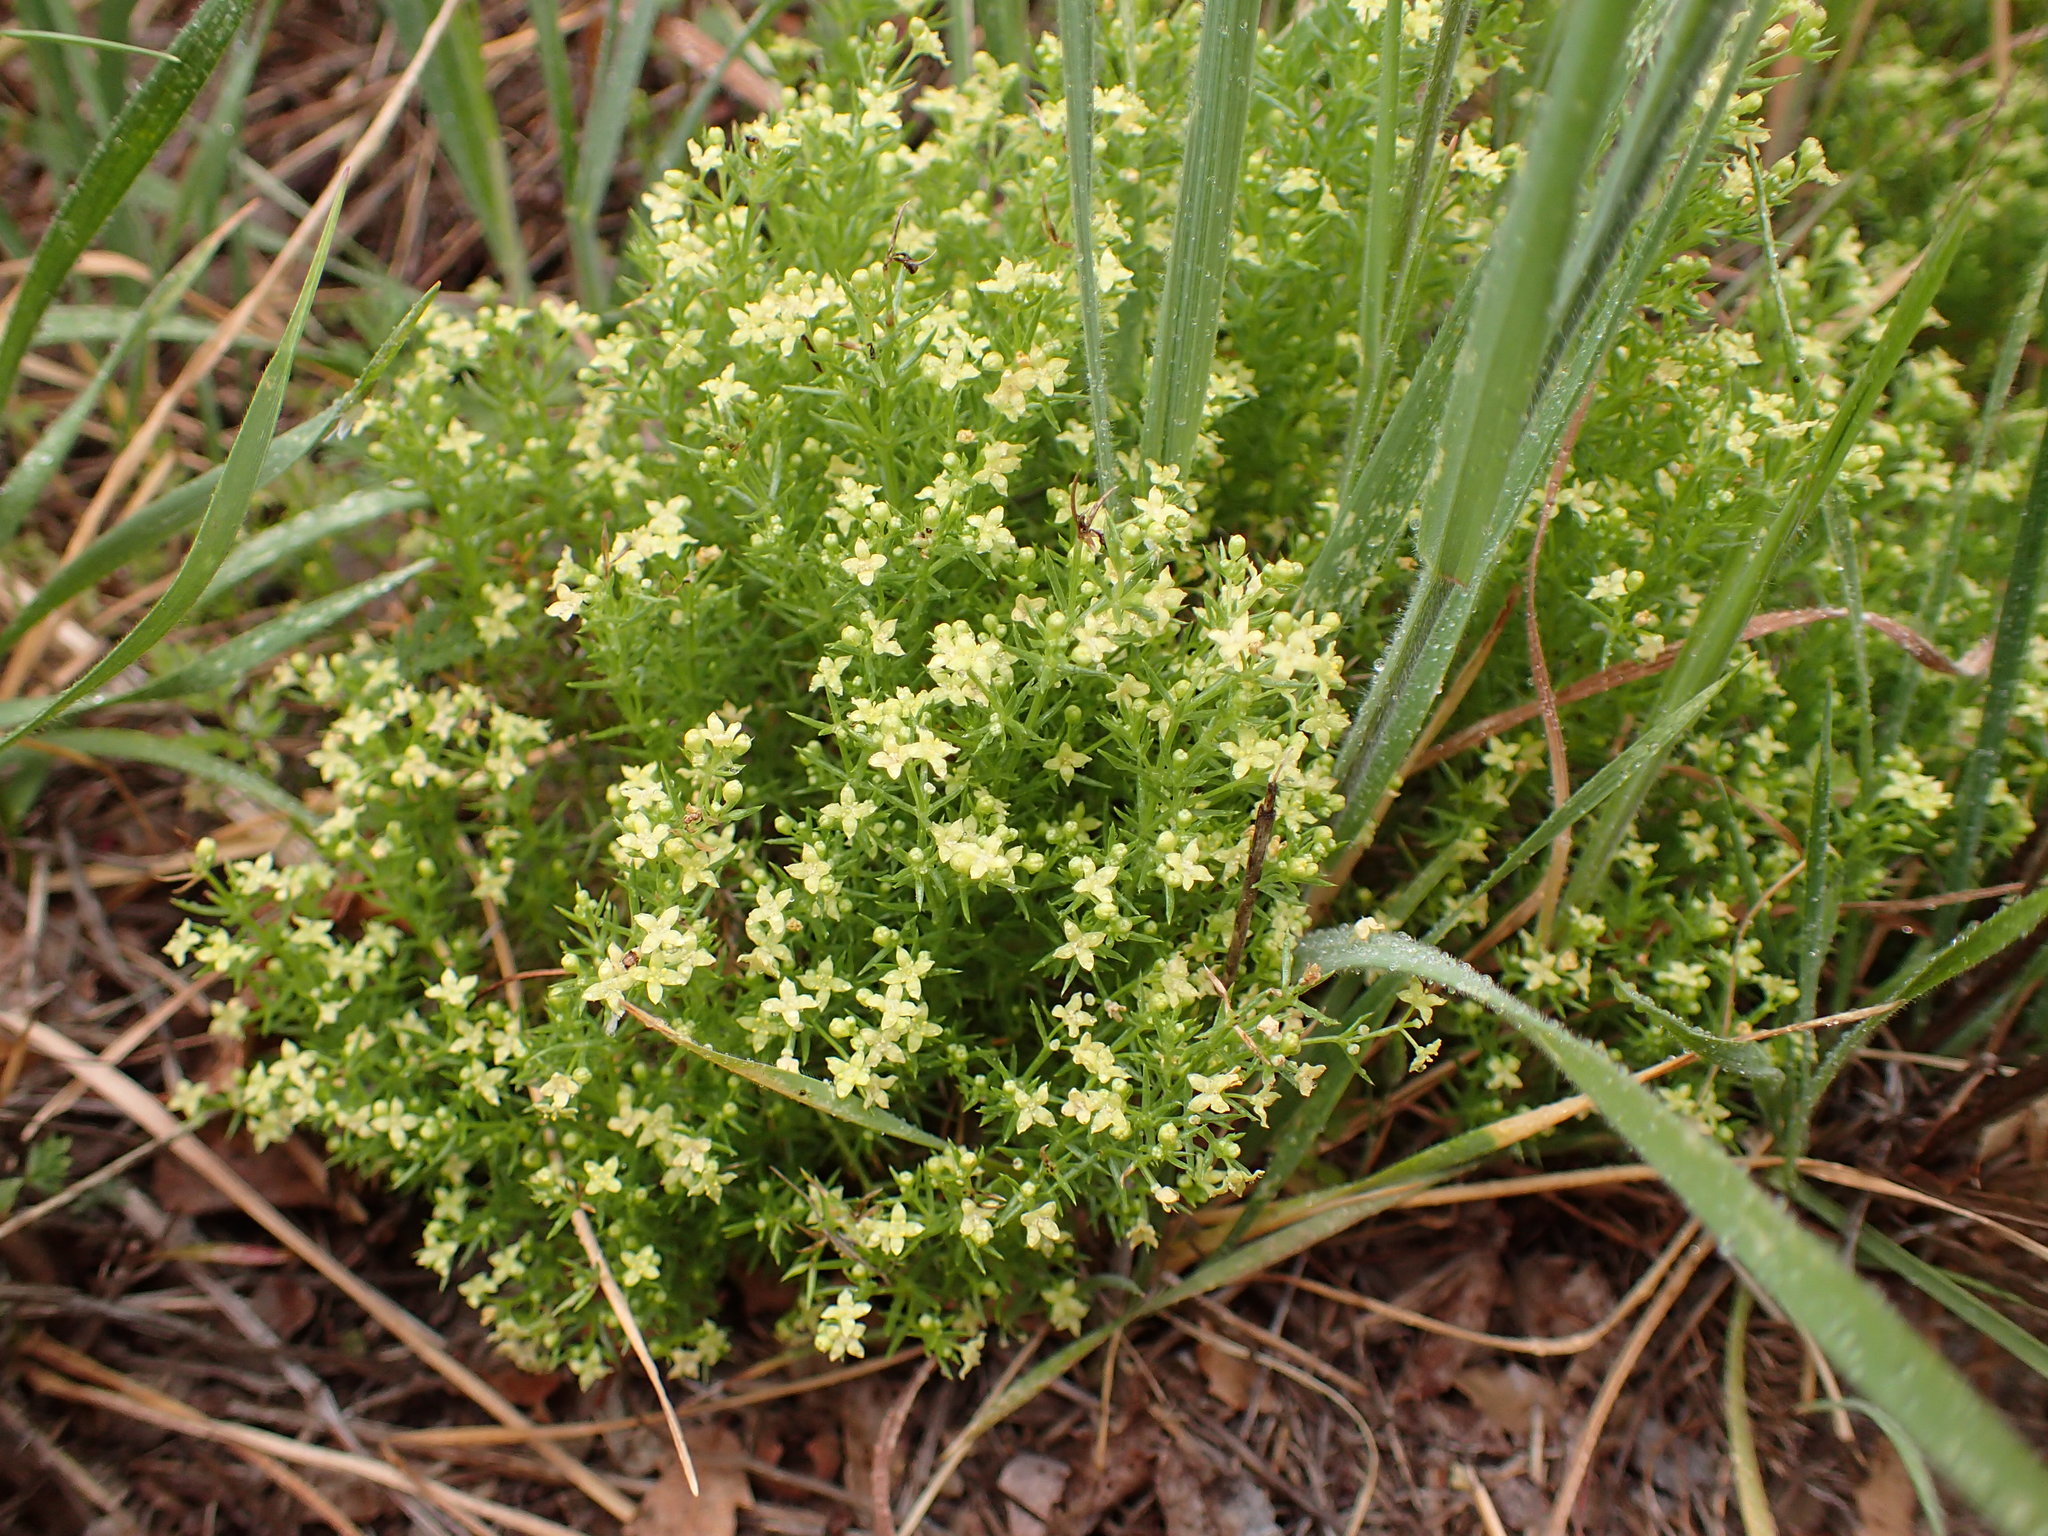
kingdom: Plantae
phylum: Tracheophyta
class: Magnoliopsida
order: Gentianales
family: Rubiaceae
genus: Galium
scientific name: Galium andrewsii
